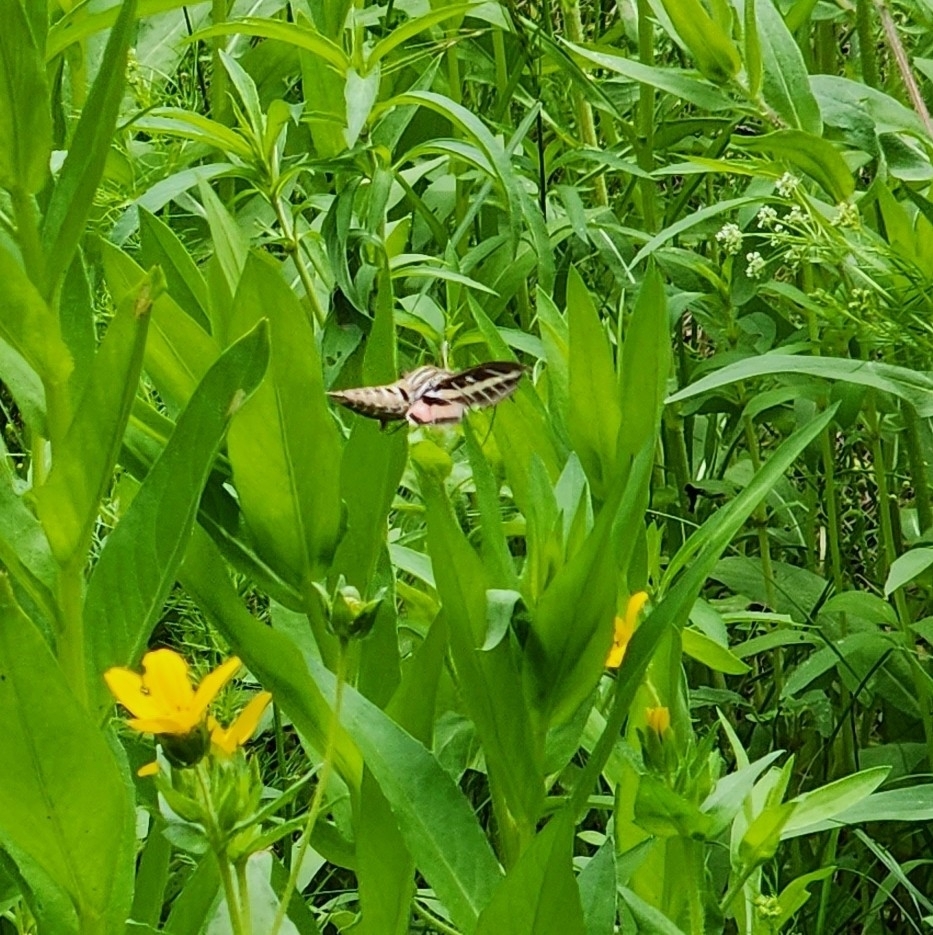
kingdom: Animalia
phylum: Arthropoda
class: Insecta
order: Lepidoptera
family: Sphingidae
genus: Hyles
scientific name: Hyles lineata
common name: White-lined sphinx
